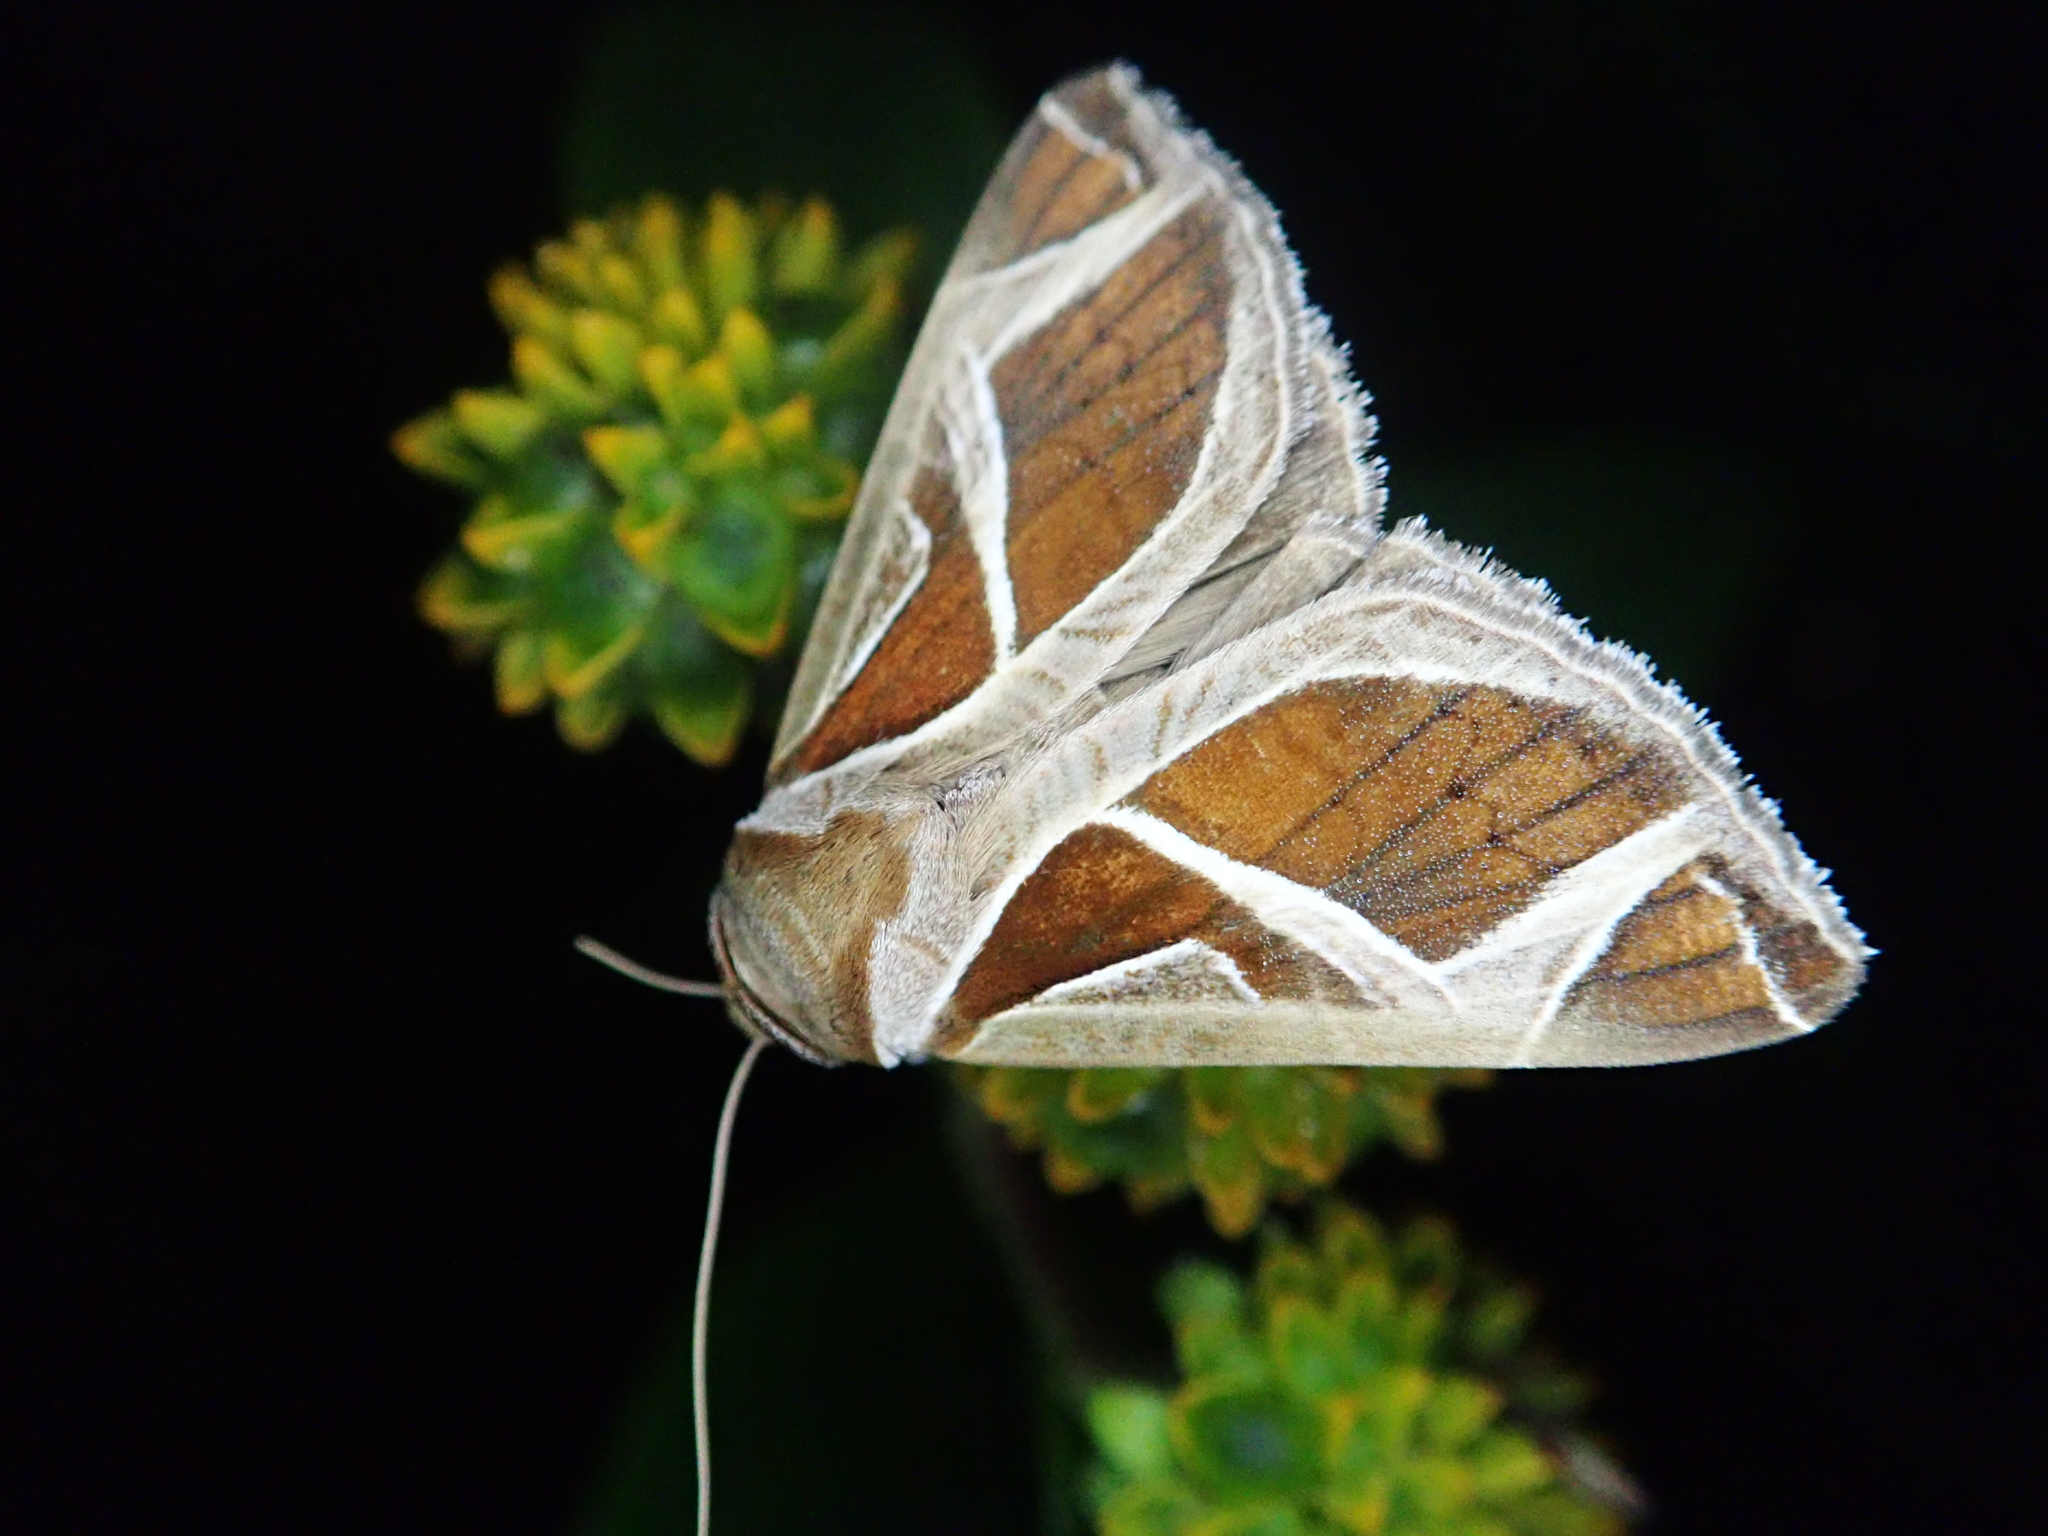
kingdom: Animalia
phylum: Arthropoda
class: Insecta
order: Lepidoptera
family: Erebidae
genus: Calyptis
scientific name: Calyptis iter
